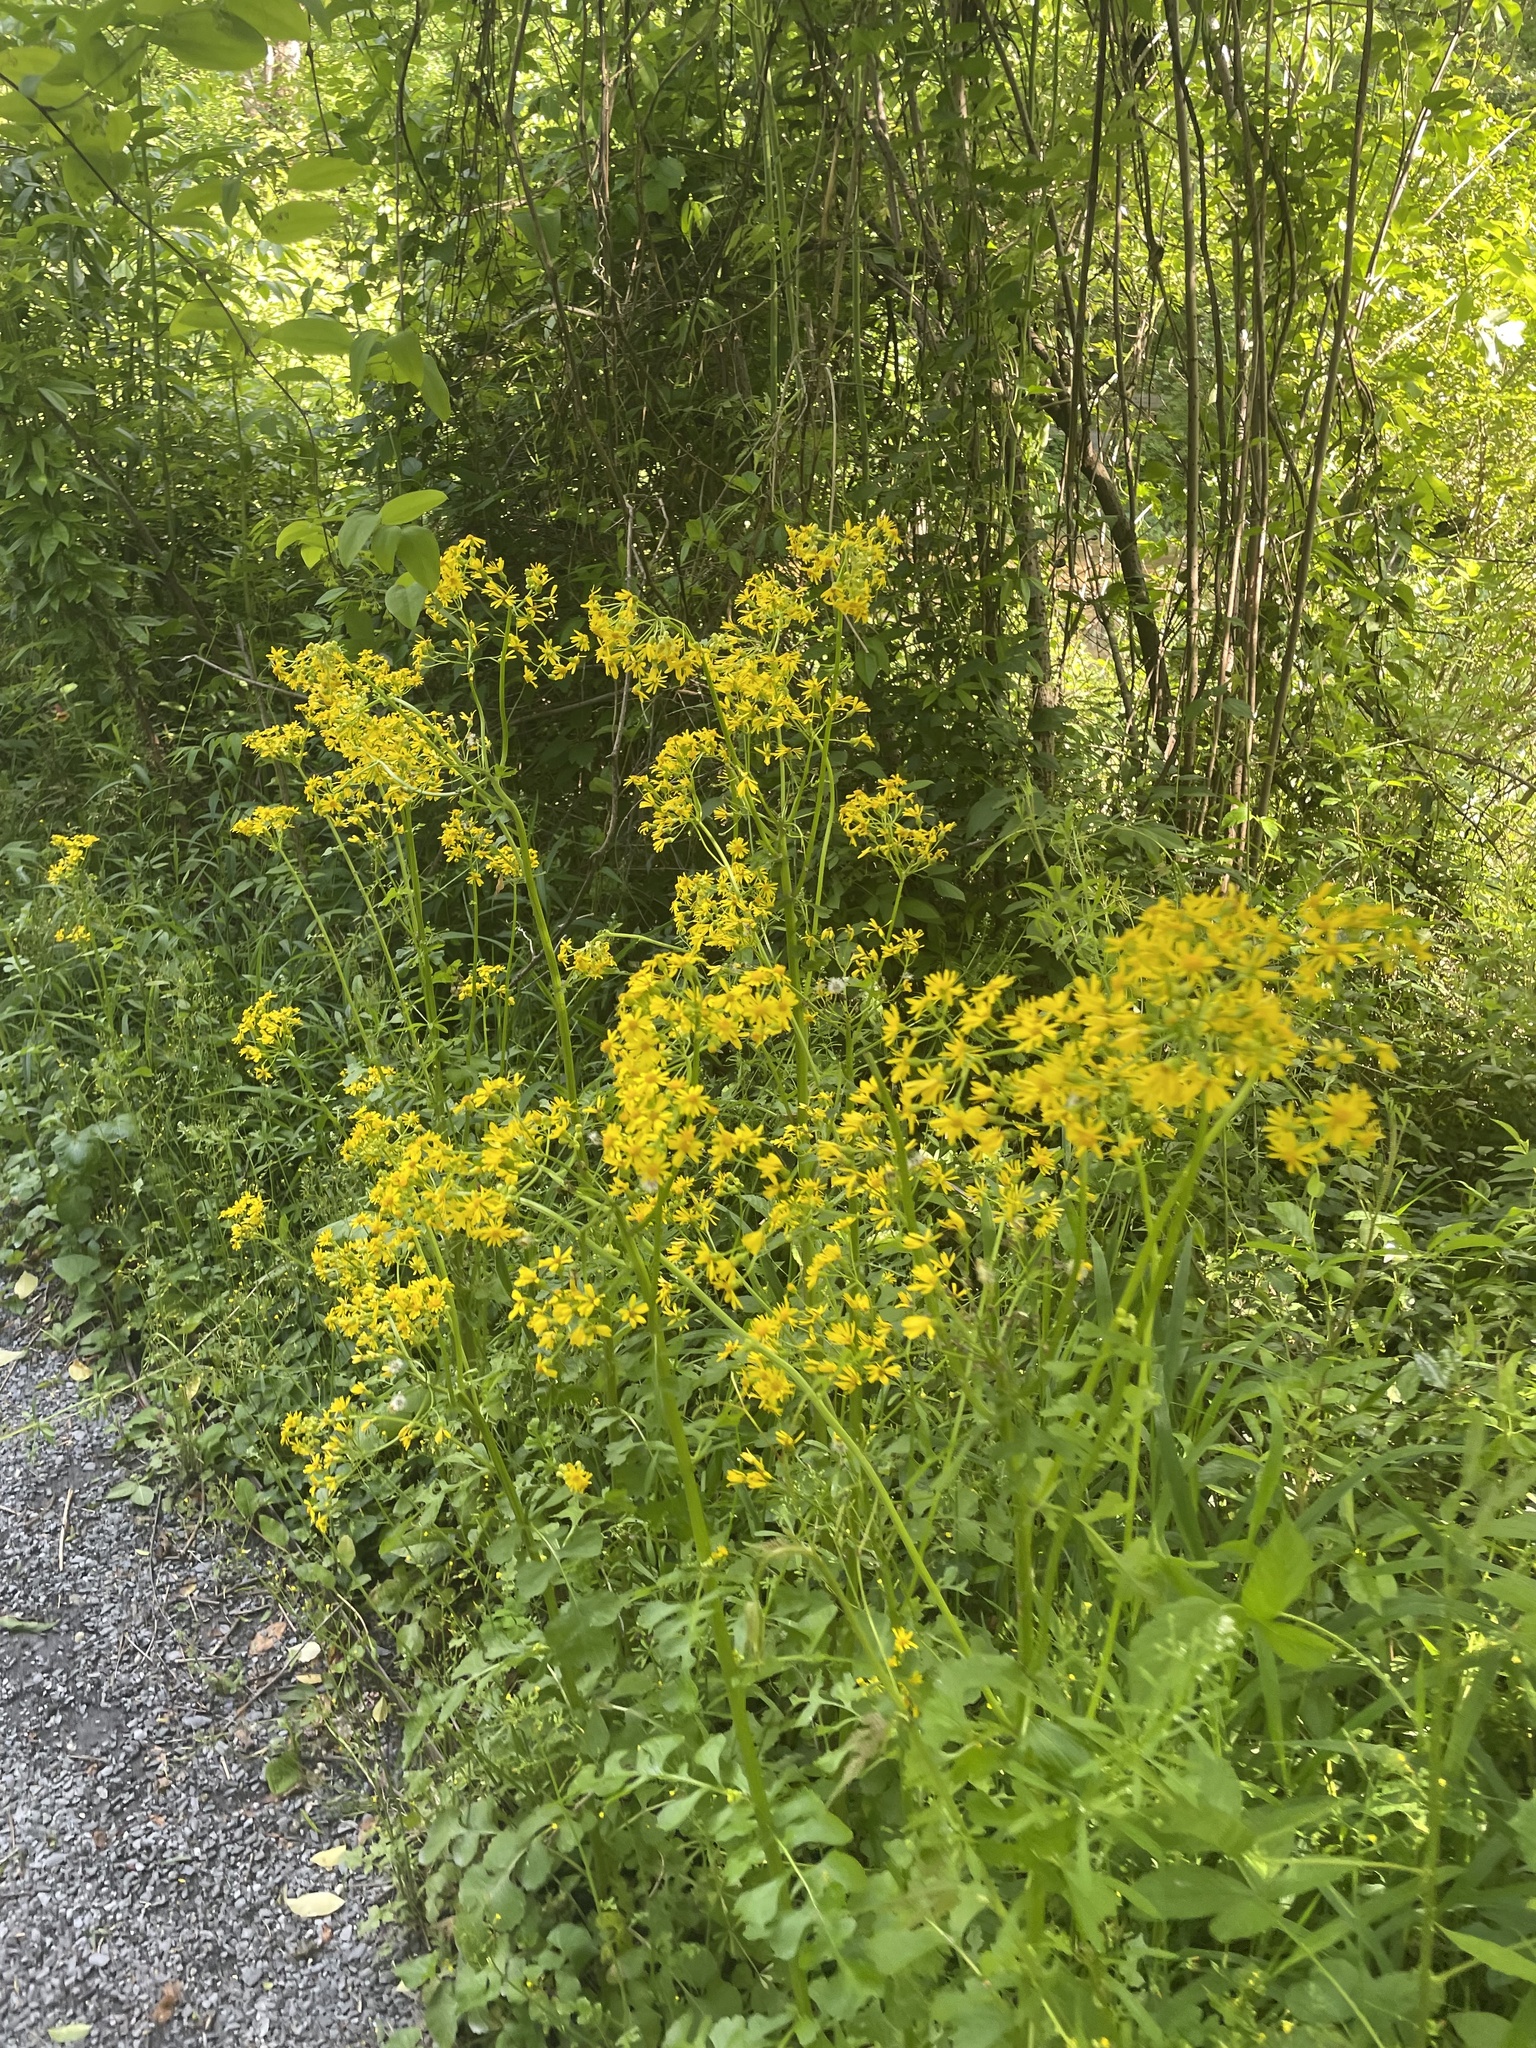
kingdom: Plantae
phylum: Tracheophyta
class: Magnoliopsida
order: Asterales
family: Asteraceae
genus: Packera
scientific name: Packera glabella
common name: Butterweed
